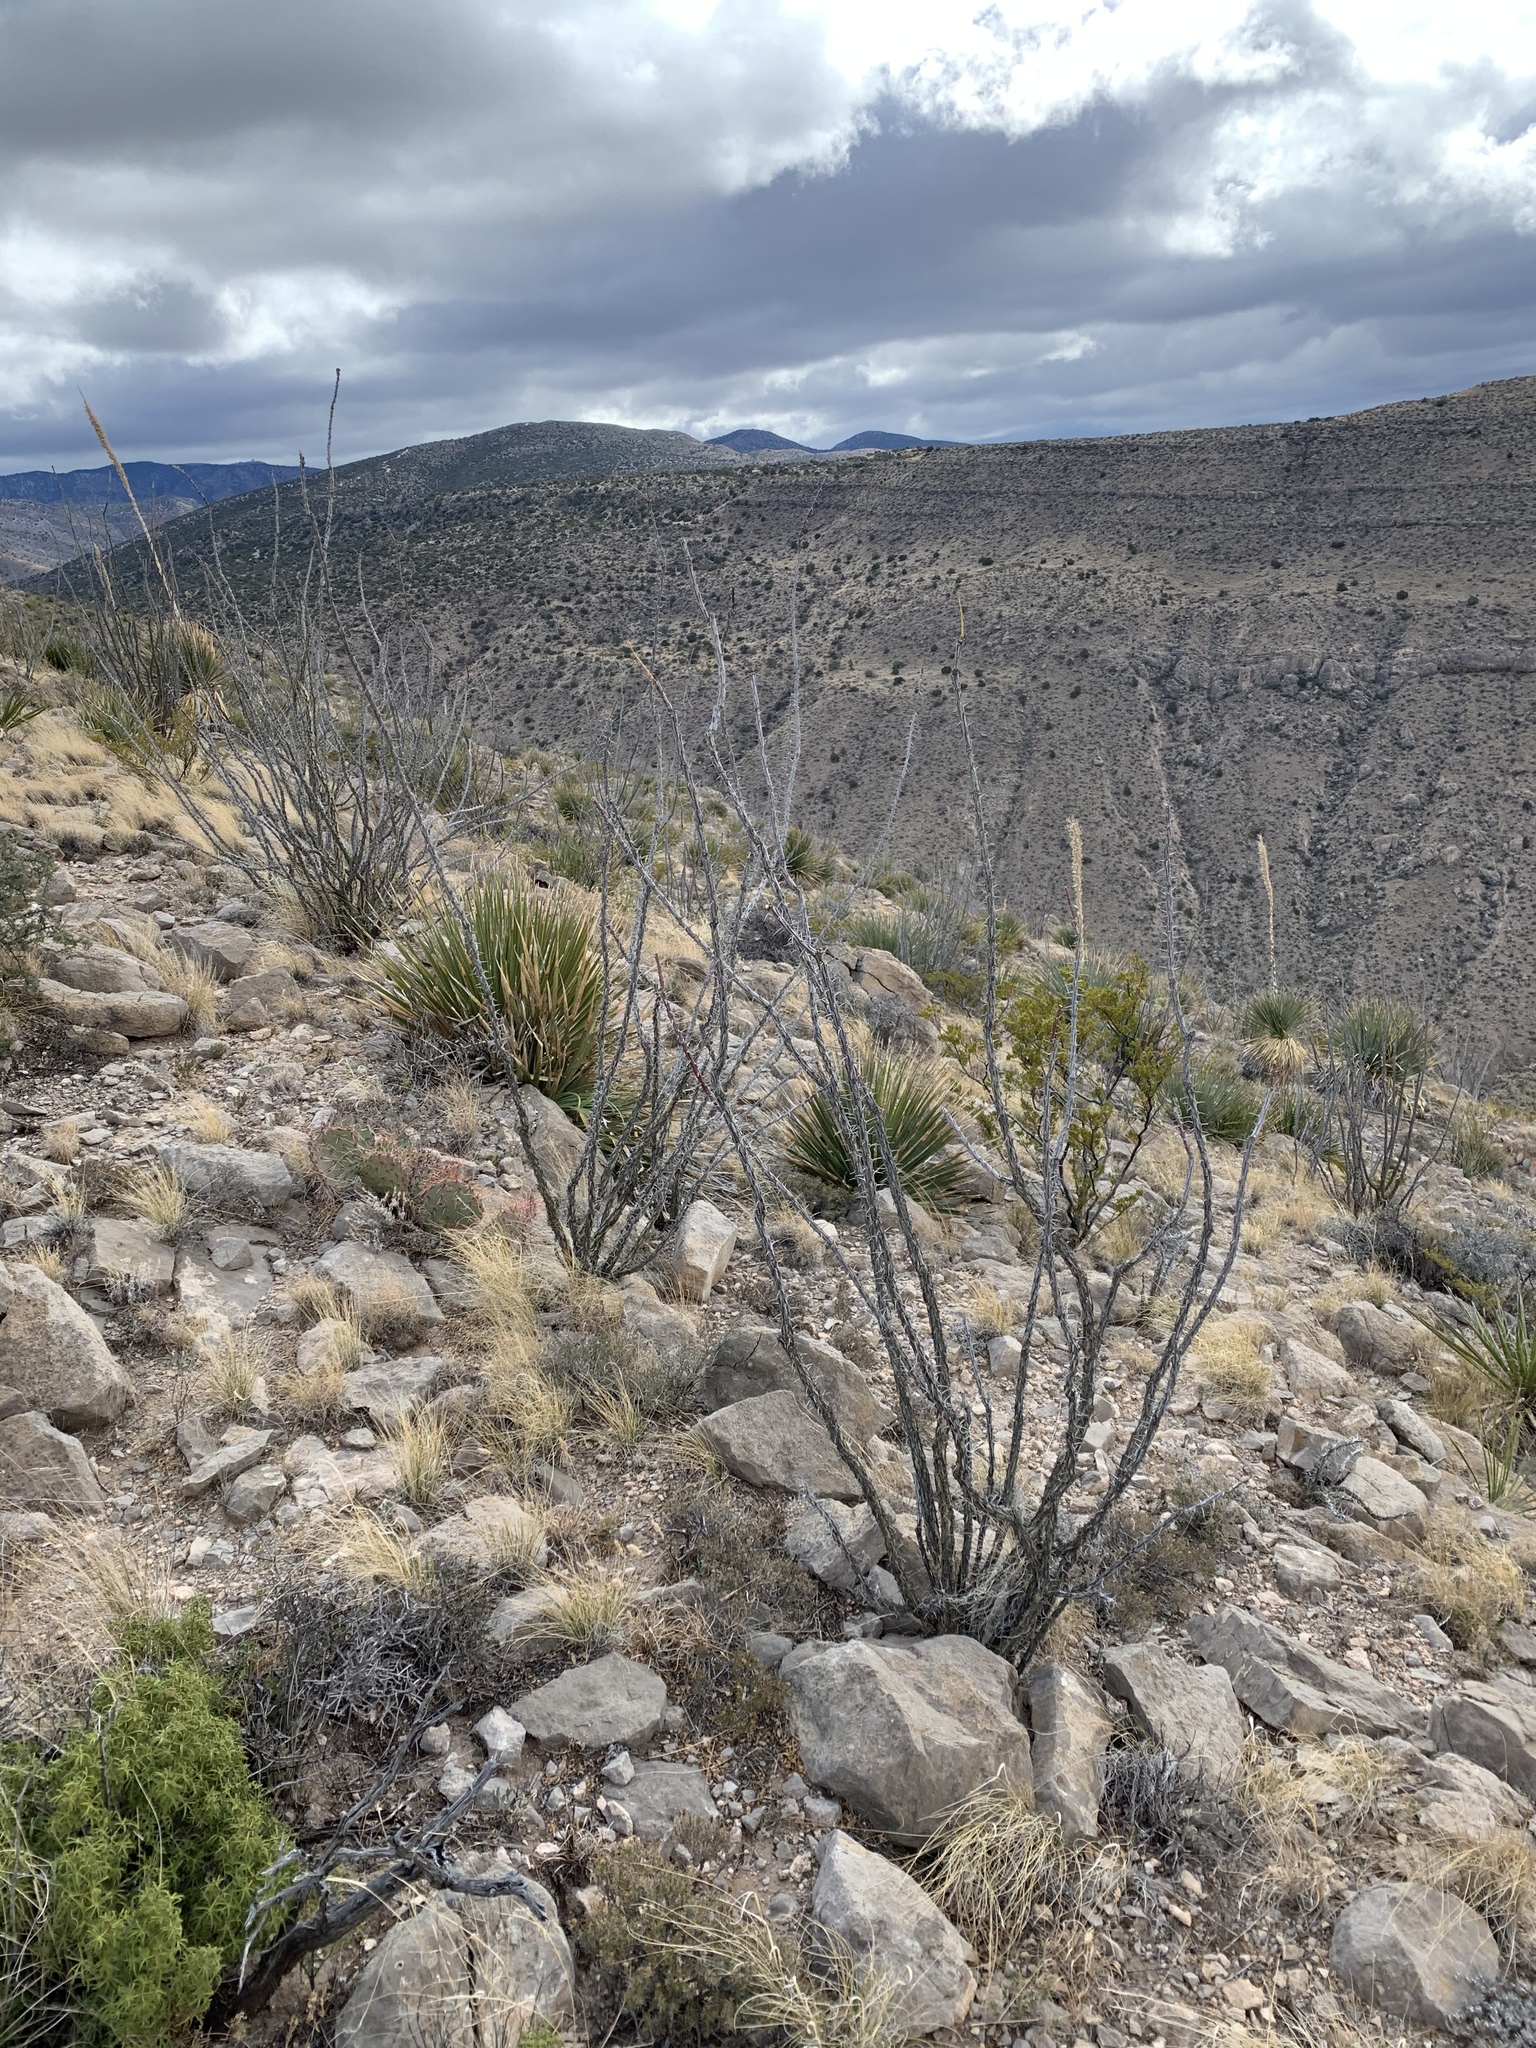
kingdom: Plantae
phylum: Tracheophyta
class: Magnoliopsida
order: Ericales
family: Fouquieriaceae
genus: Fouquieria
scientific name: Fouquieria splendens
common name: Vine-cactus
